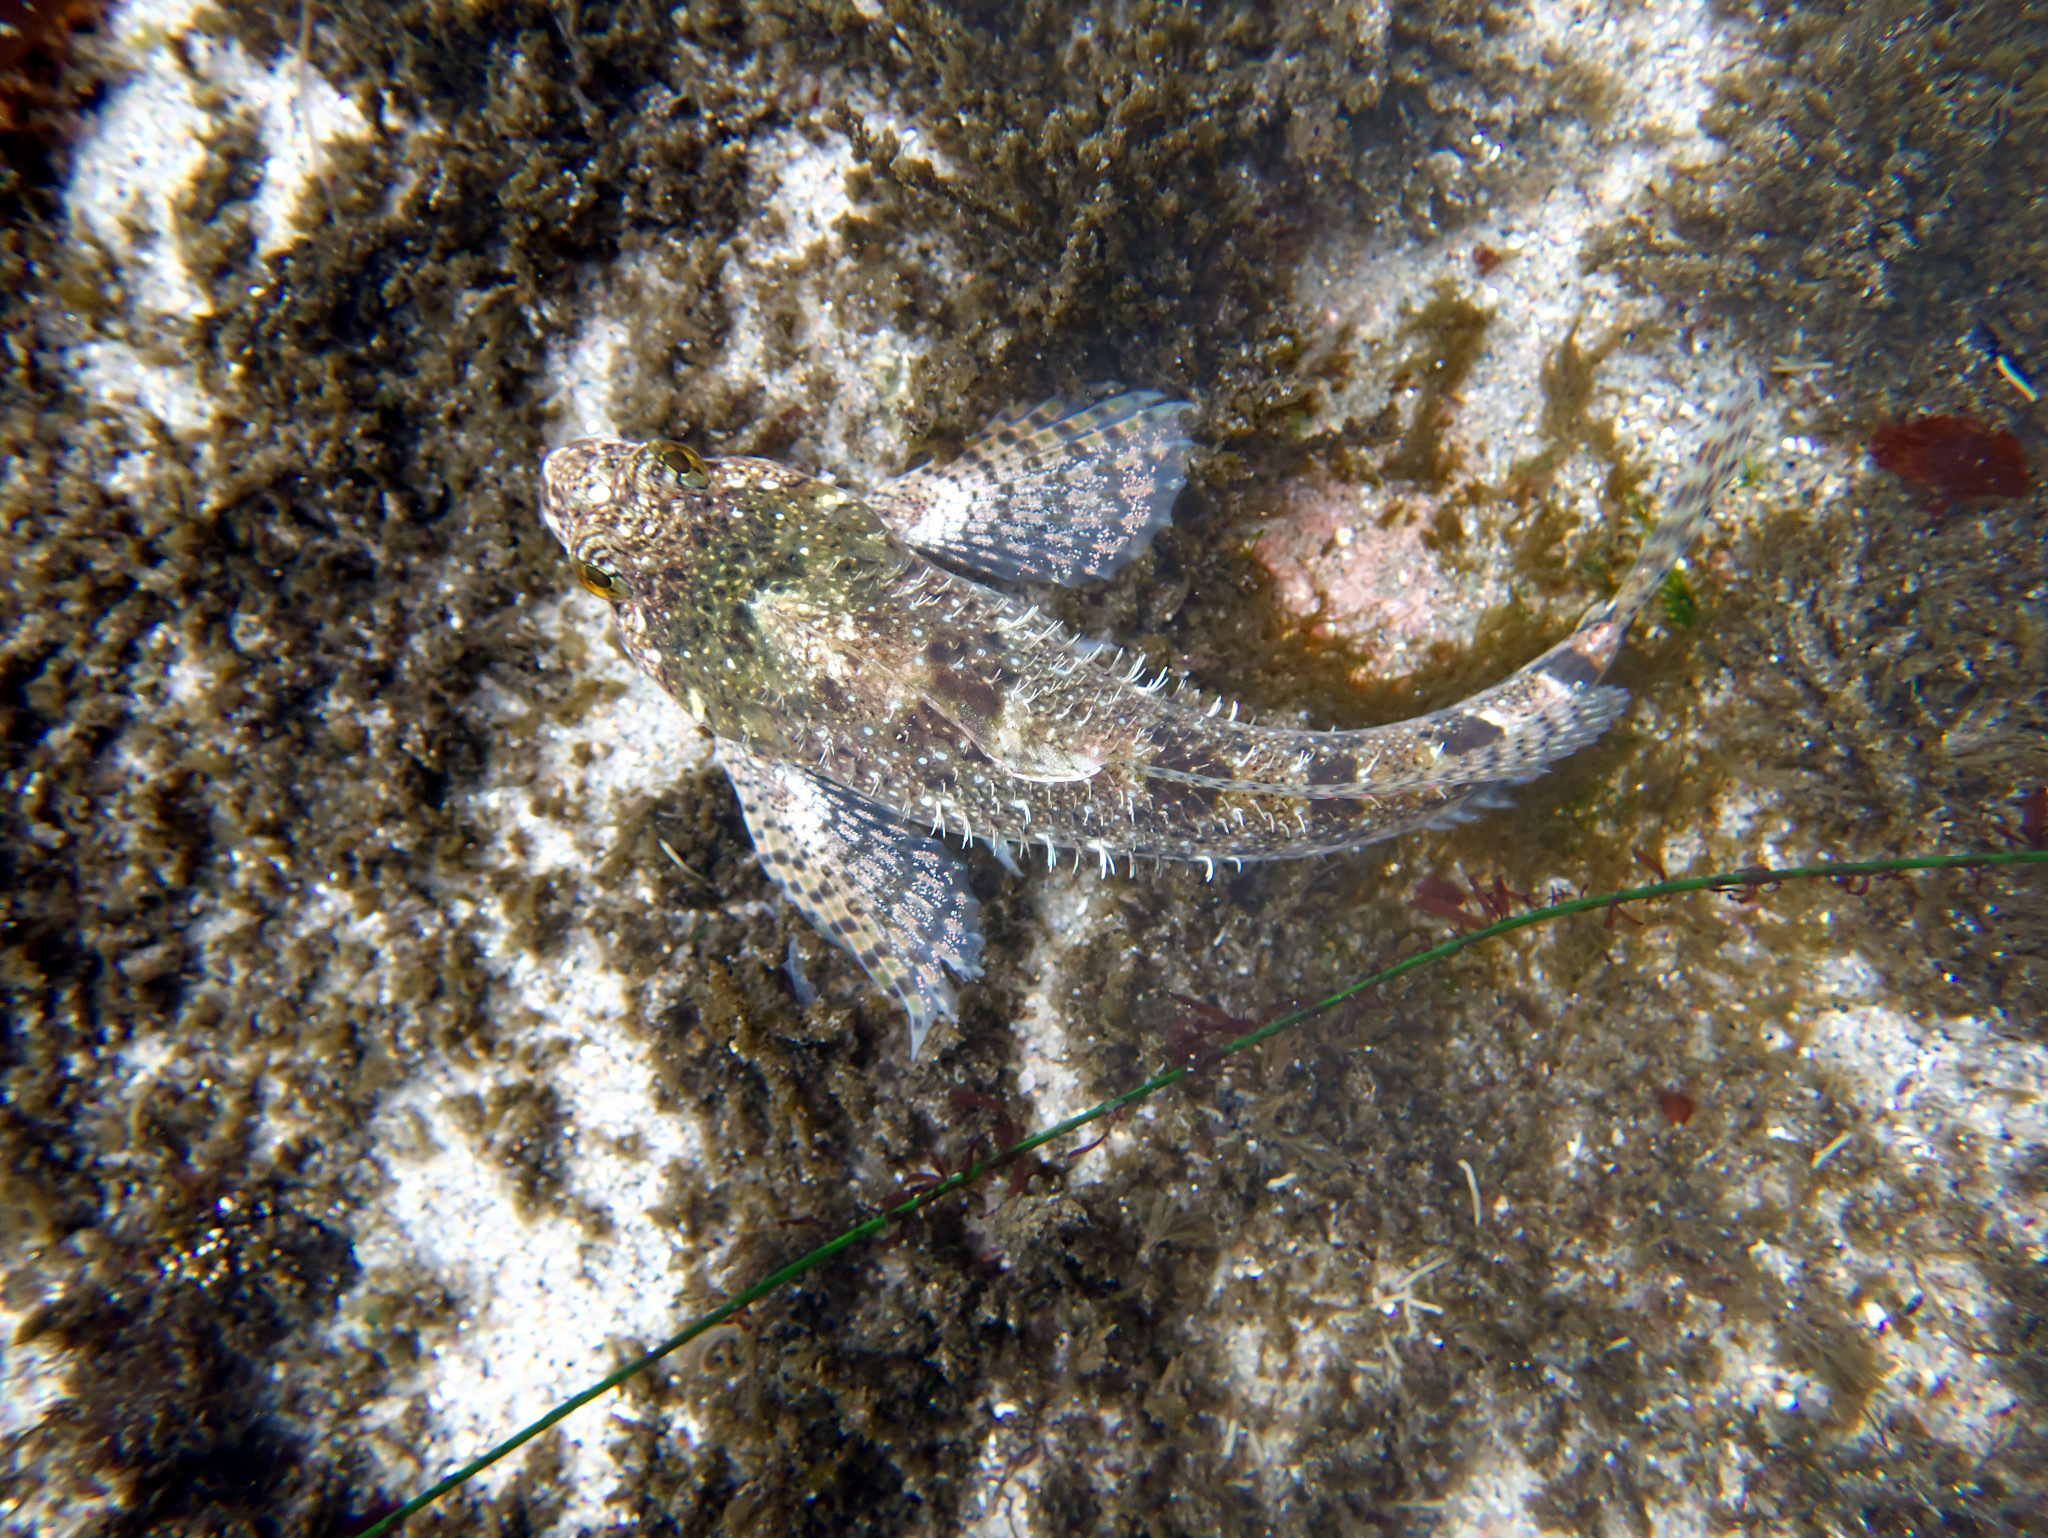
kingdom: Animalia
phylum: Chordata
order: Scorpaeniformes
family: Cottidae
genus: Clinocottus
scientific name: Clinocottus analis
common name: Woolly sculpin
